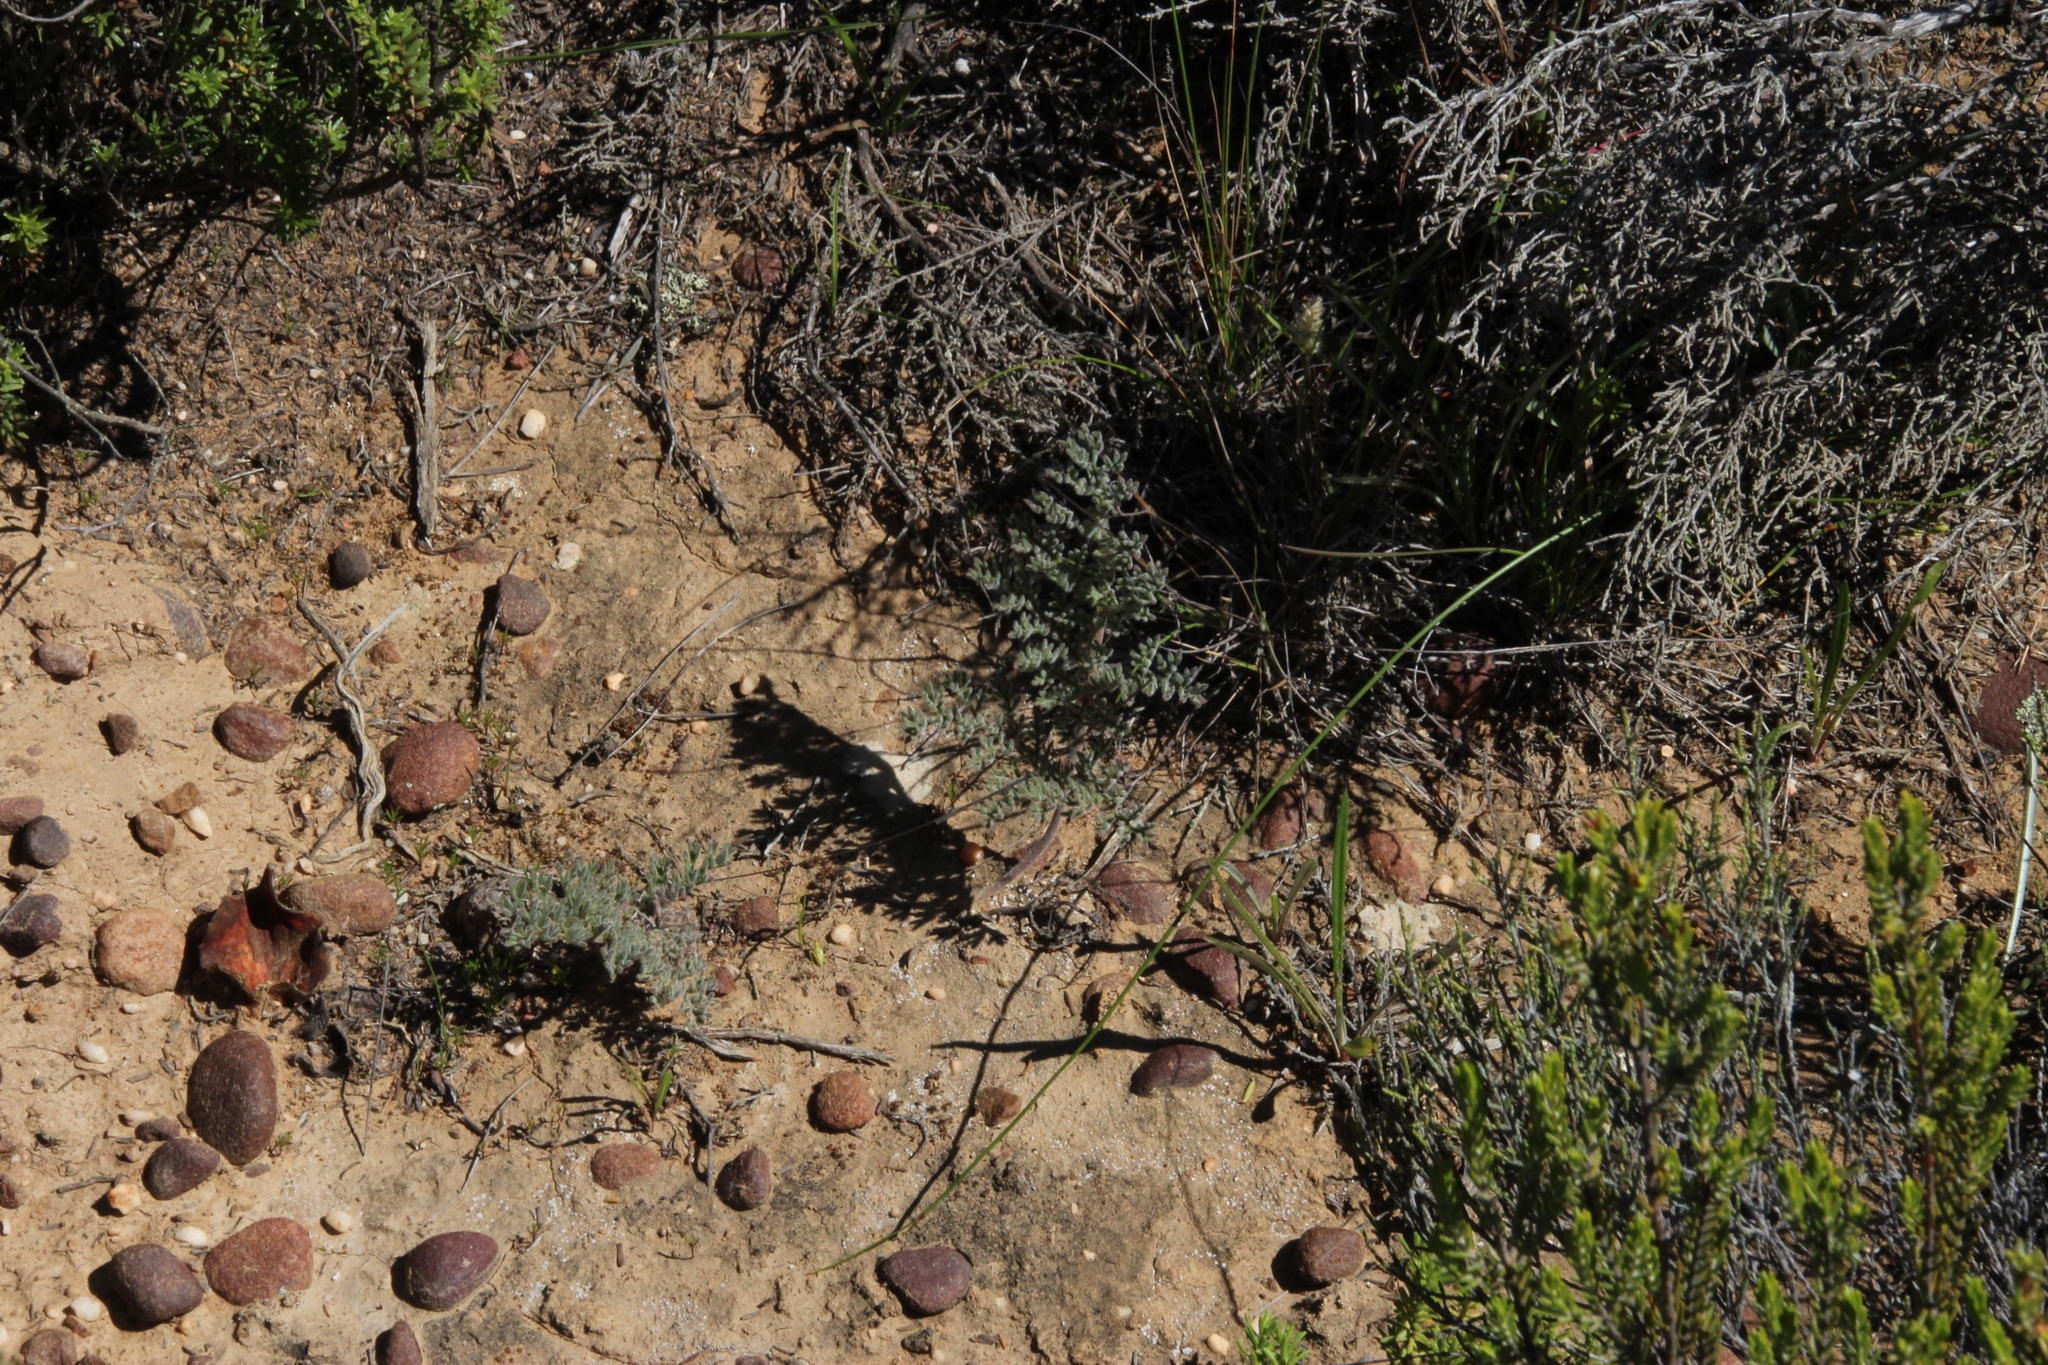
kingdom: Plantae
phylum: Tracheophyta
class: Magnoliopsida
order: Geraniales
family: Geraniaceae
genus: Pelargonium
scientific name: Pelargonium triste
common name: Night-scent pelargonium
